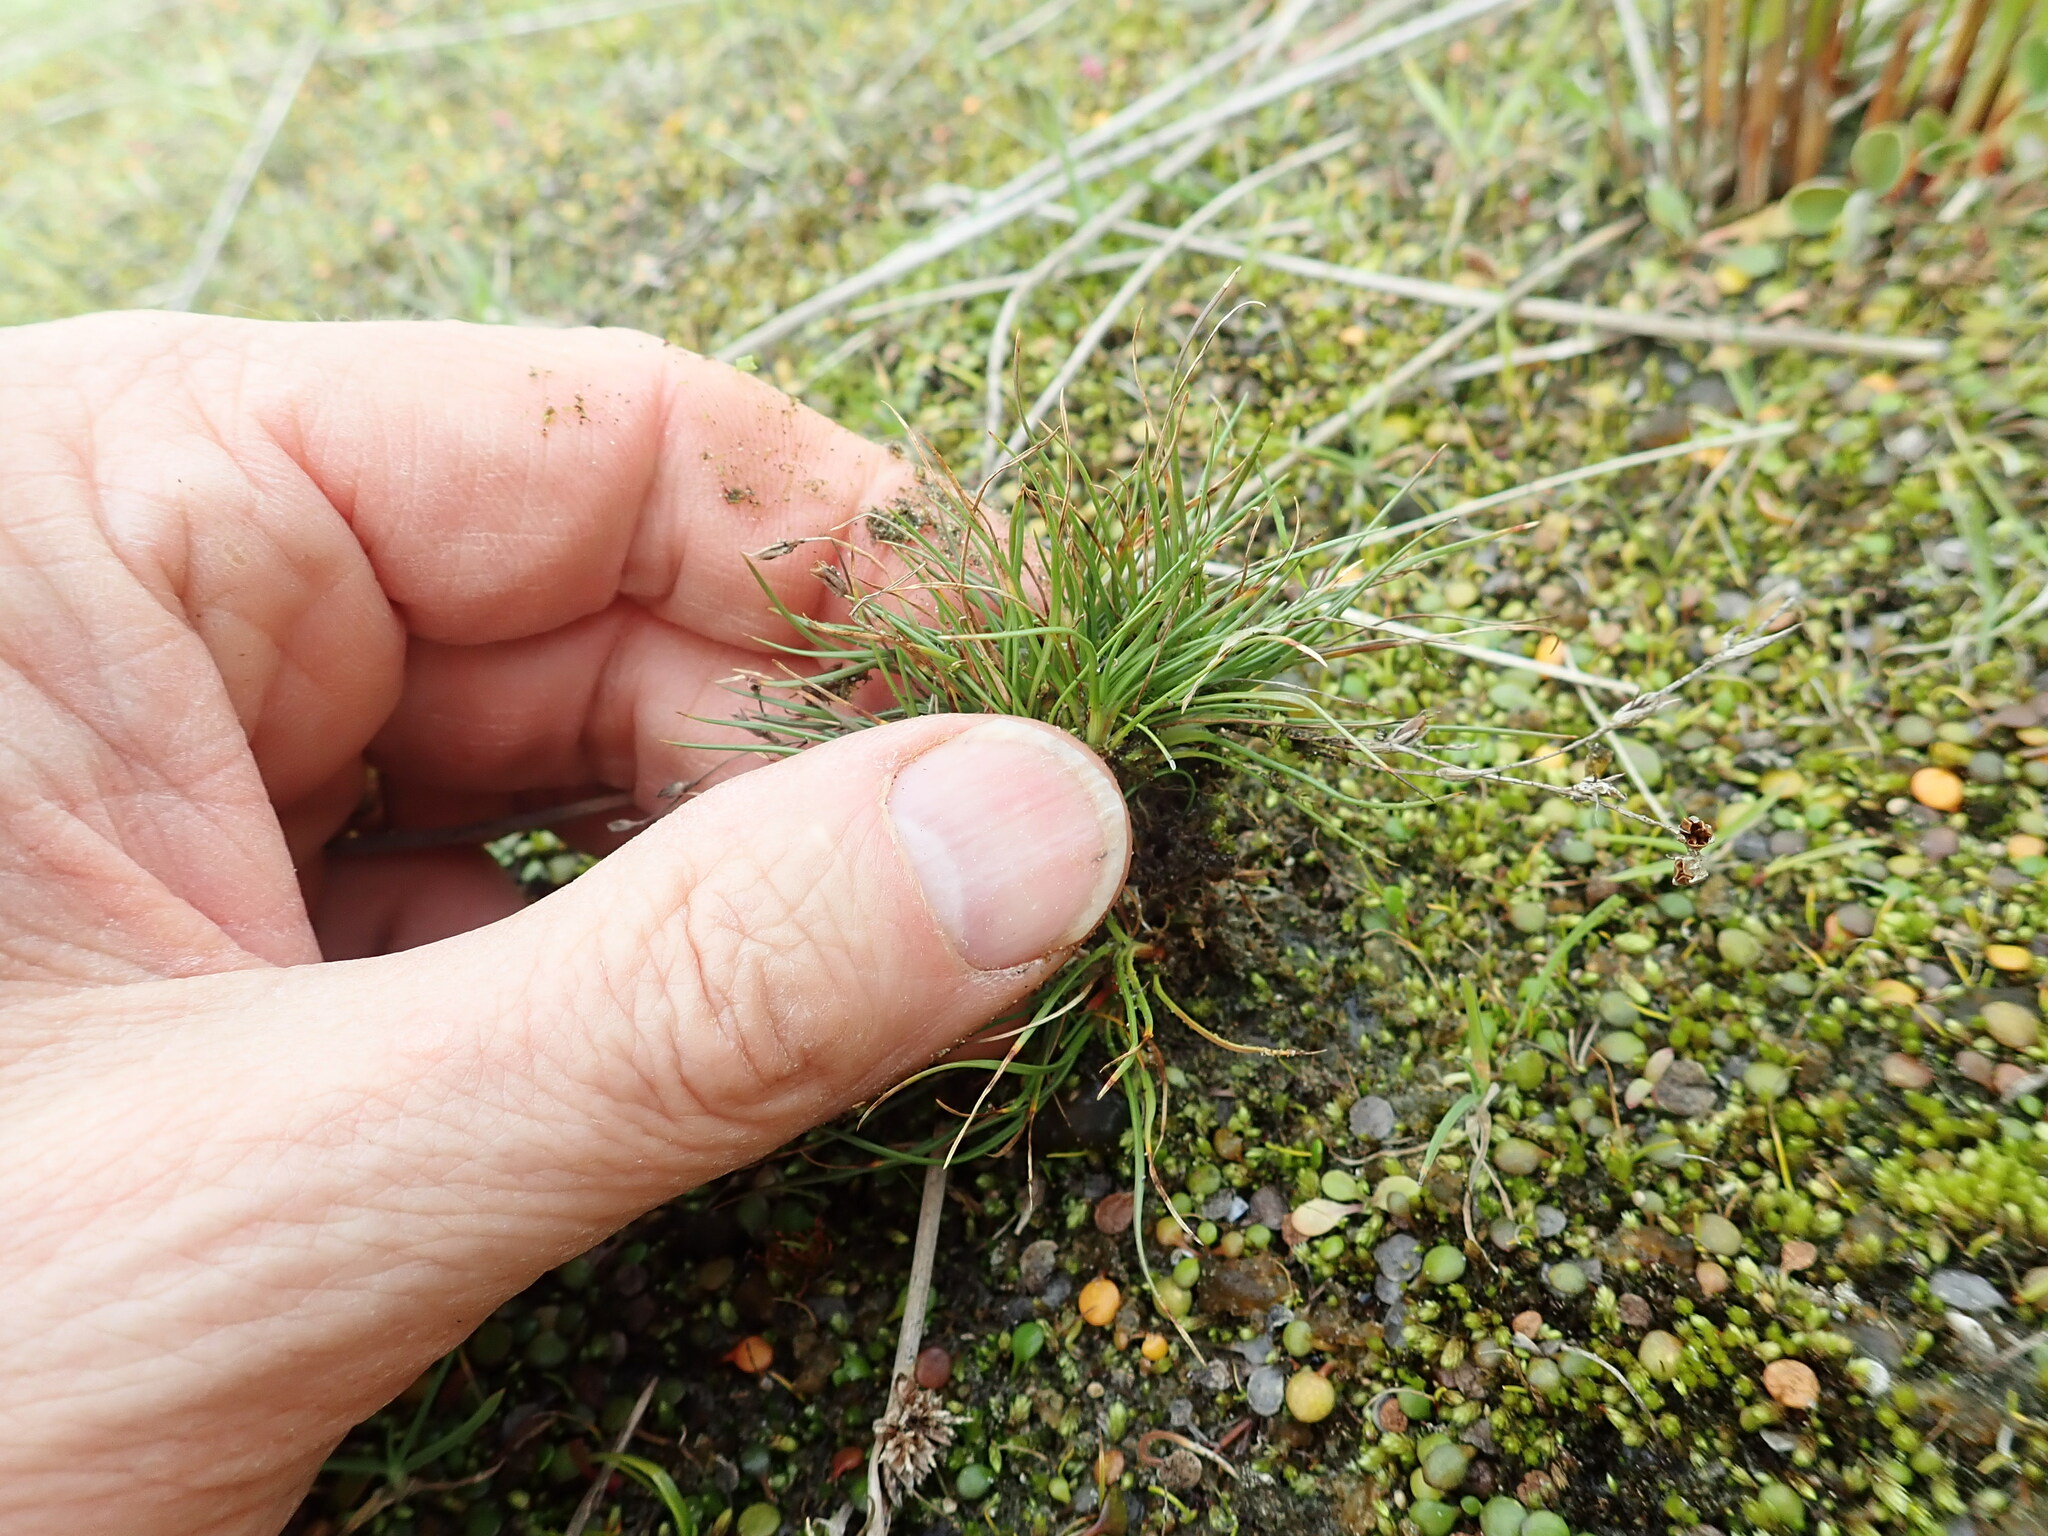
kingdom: Plantae
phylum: Tracheophyta
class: Liliopsida
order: Poales
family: Juncaceae
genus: Juncus
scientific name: Juncus bufonius
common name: Toad rush
